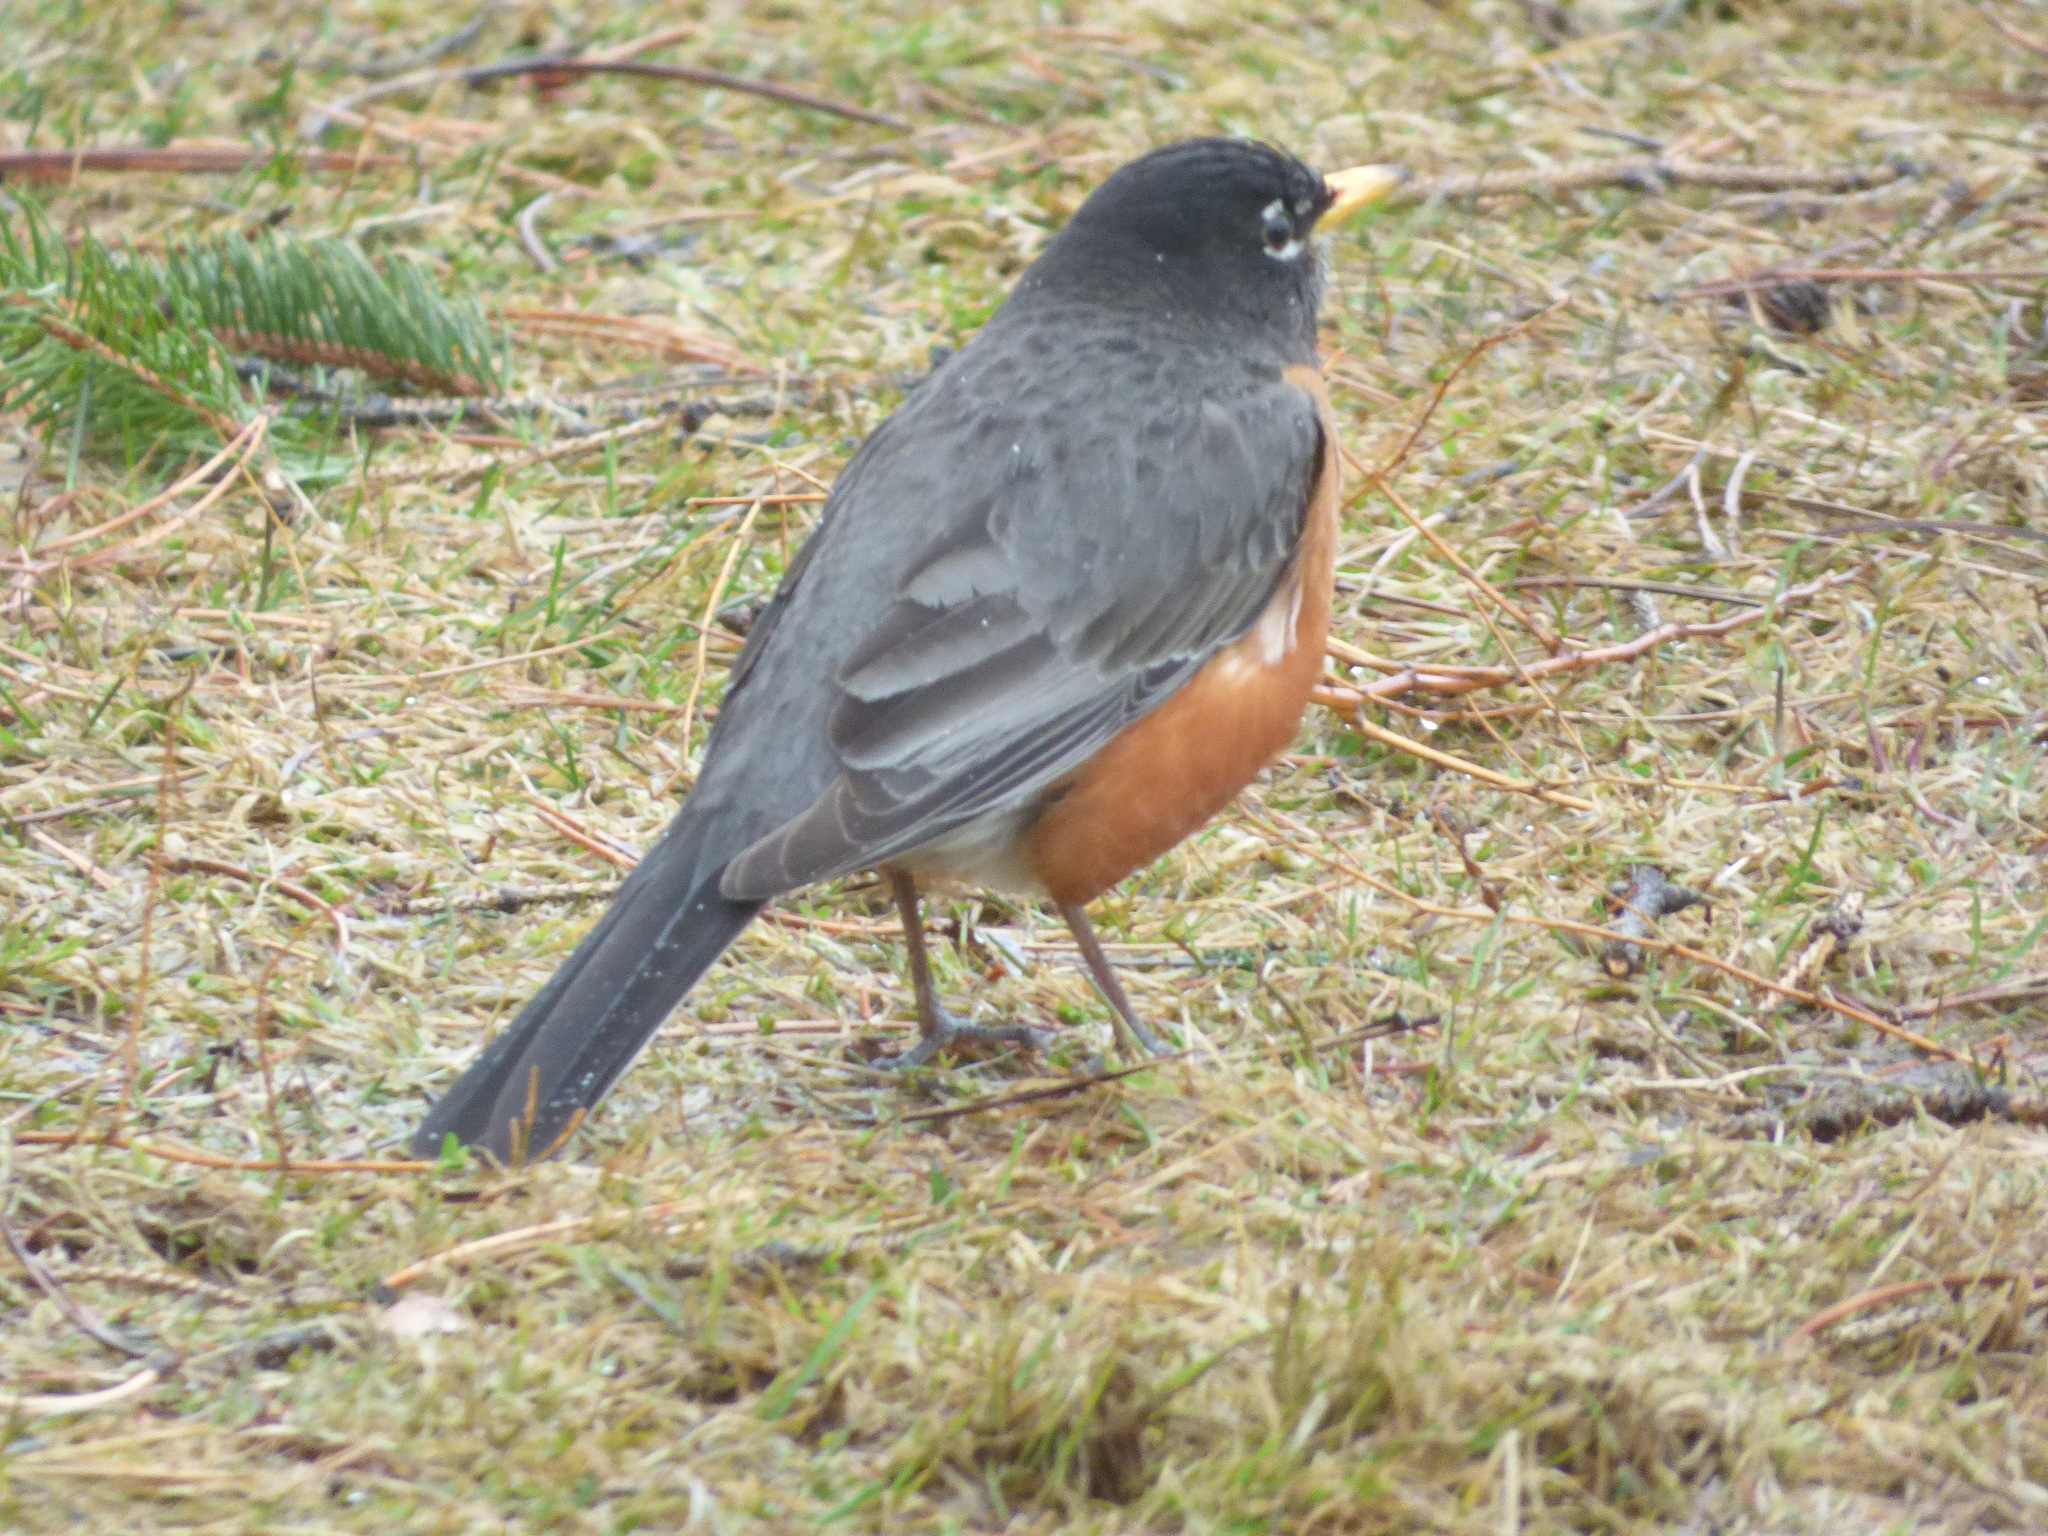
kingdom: Animalia
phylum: Chordata
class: Aves
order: Passeriformes
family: Turdidae
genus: Turdus
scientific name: Turdus migratorius
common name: American robin
